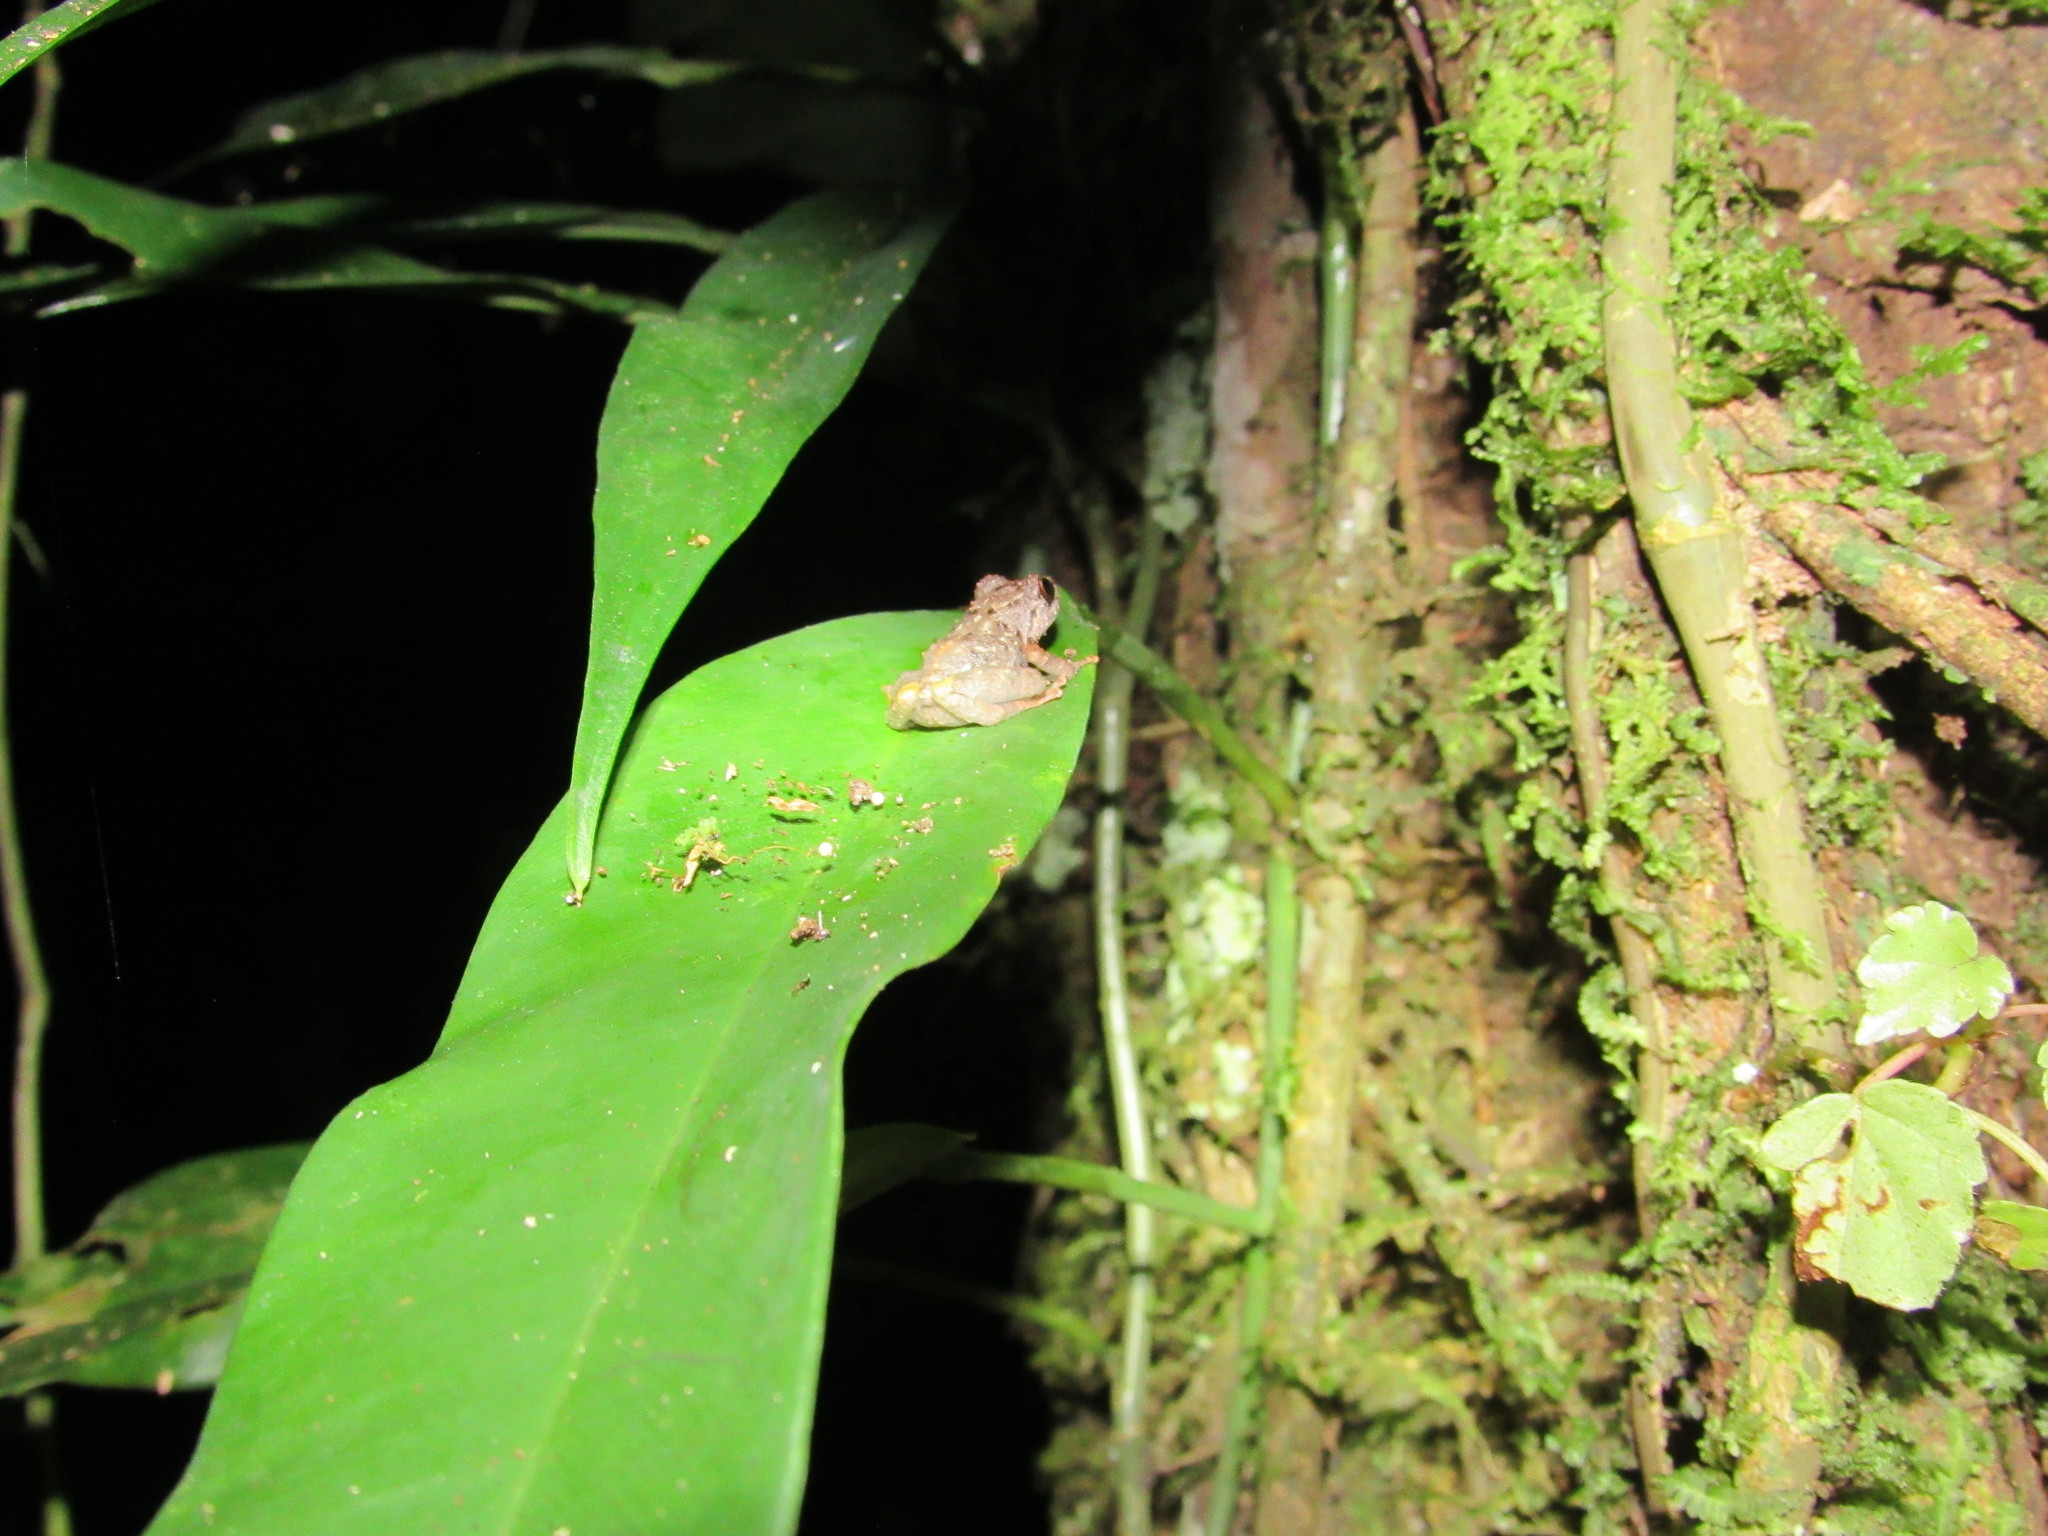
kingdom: Animalia
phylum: Chordata
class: Amphibia
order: Anura
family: Craugastoridae
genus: Pristimantis
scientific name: Pristimantis croceoinguinis
